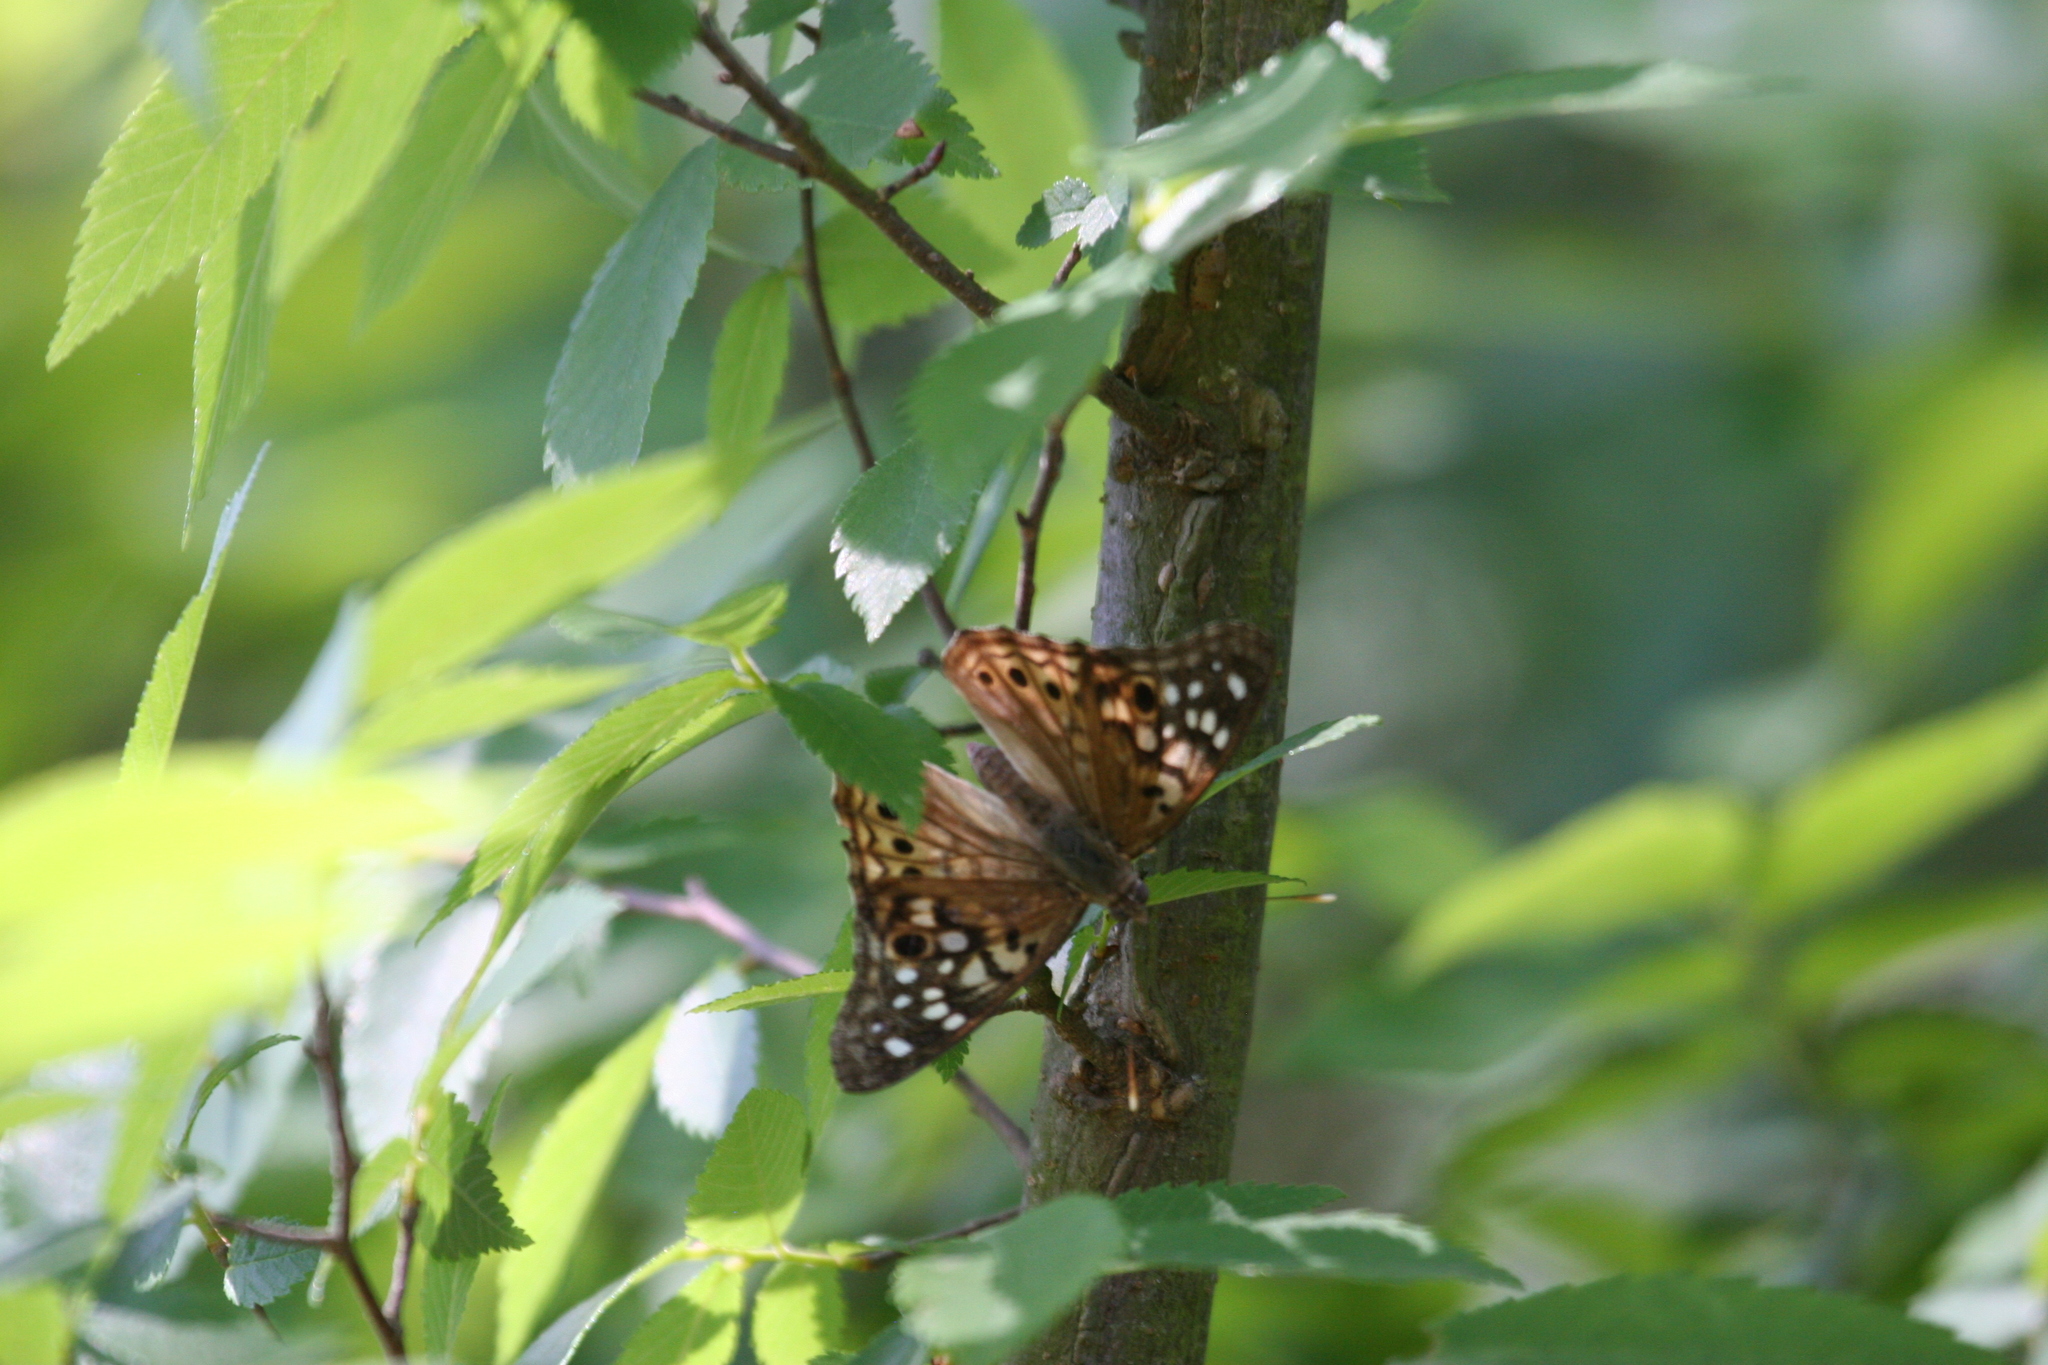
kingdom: Animalia
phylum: Arthropoda
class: Insecta
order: Lepidoptera
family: Nymphalidae
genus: Asterocampa
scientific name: Asterocampa celtis
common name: Hackberry emperor
